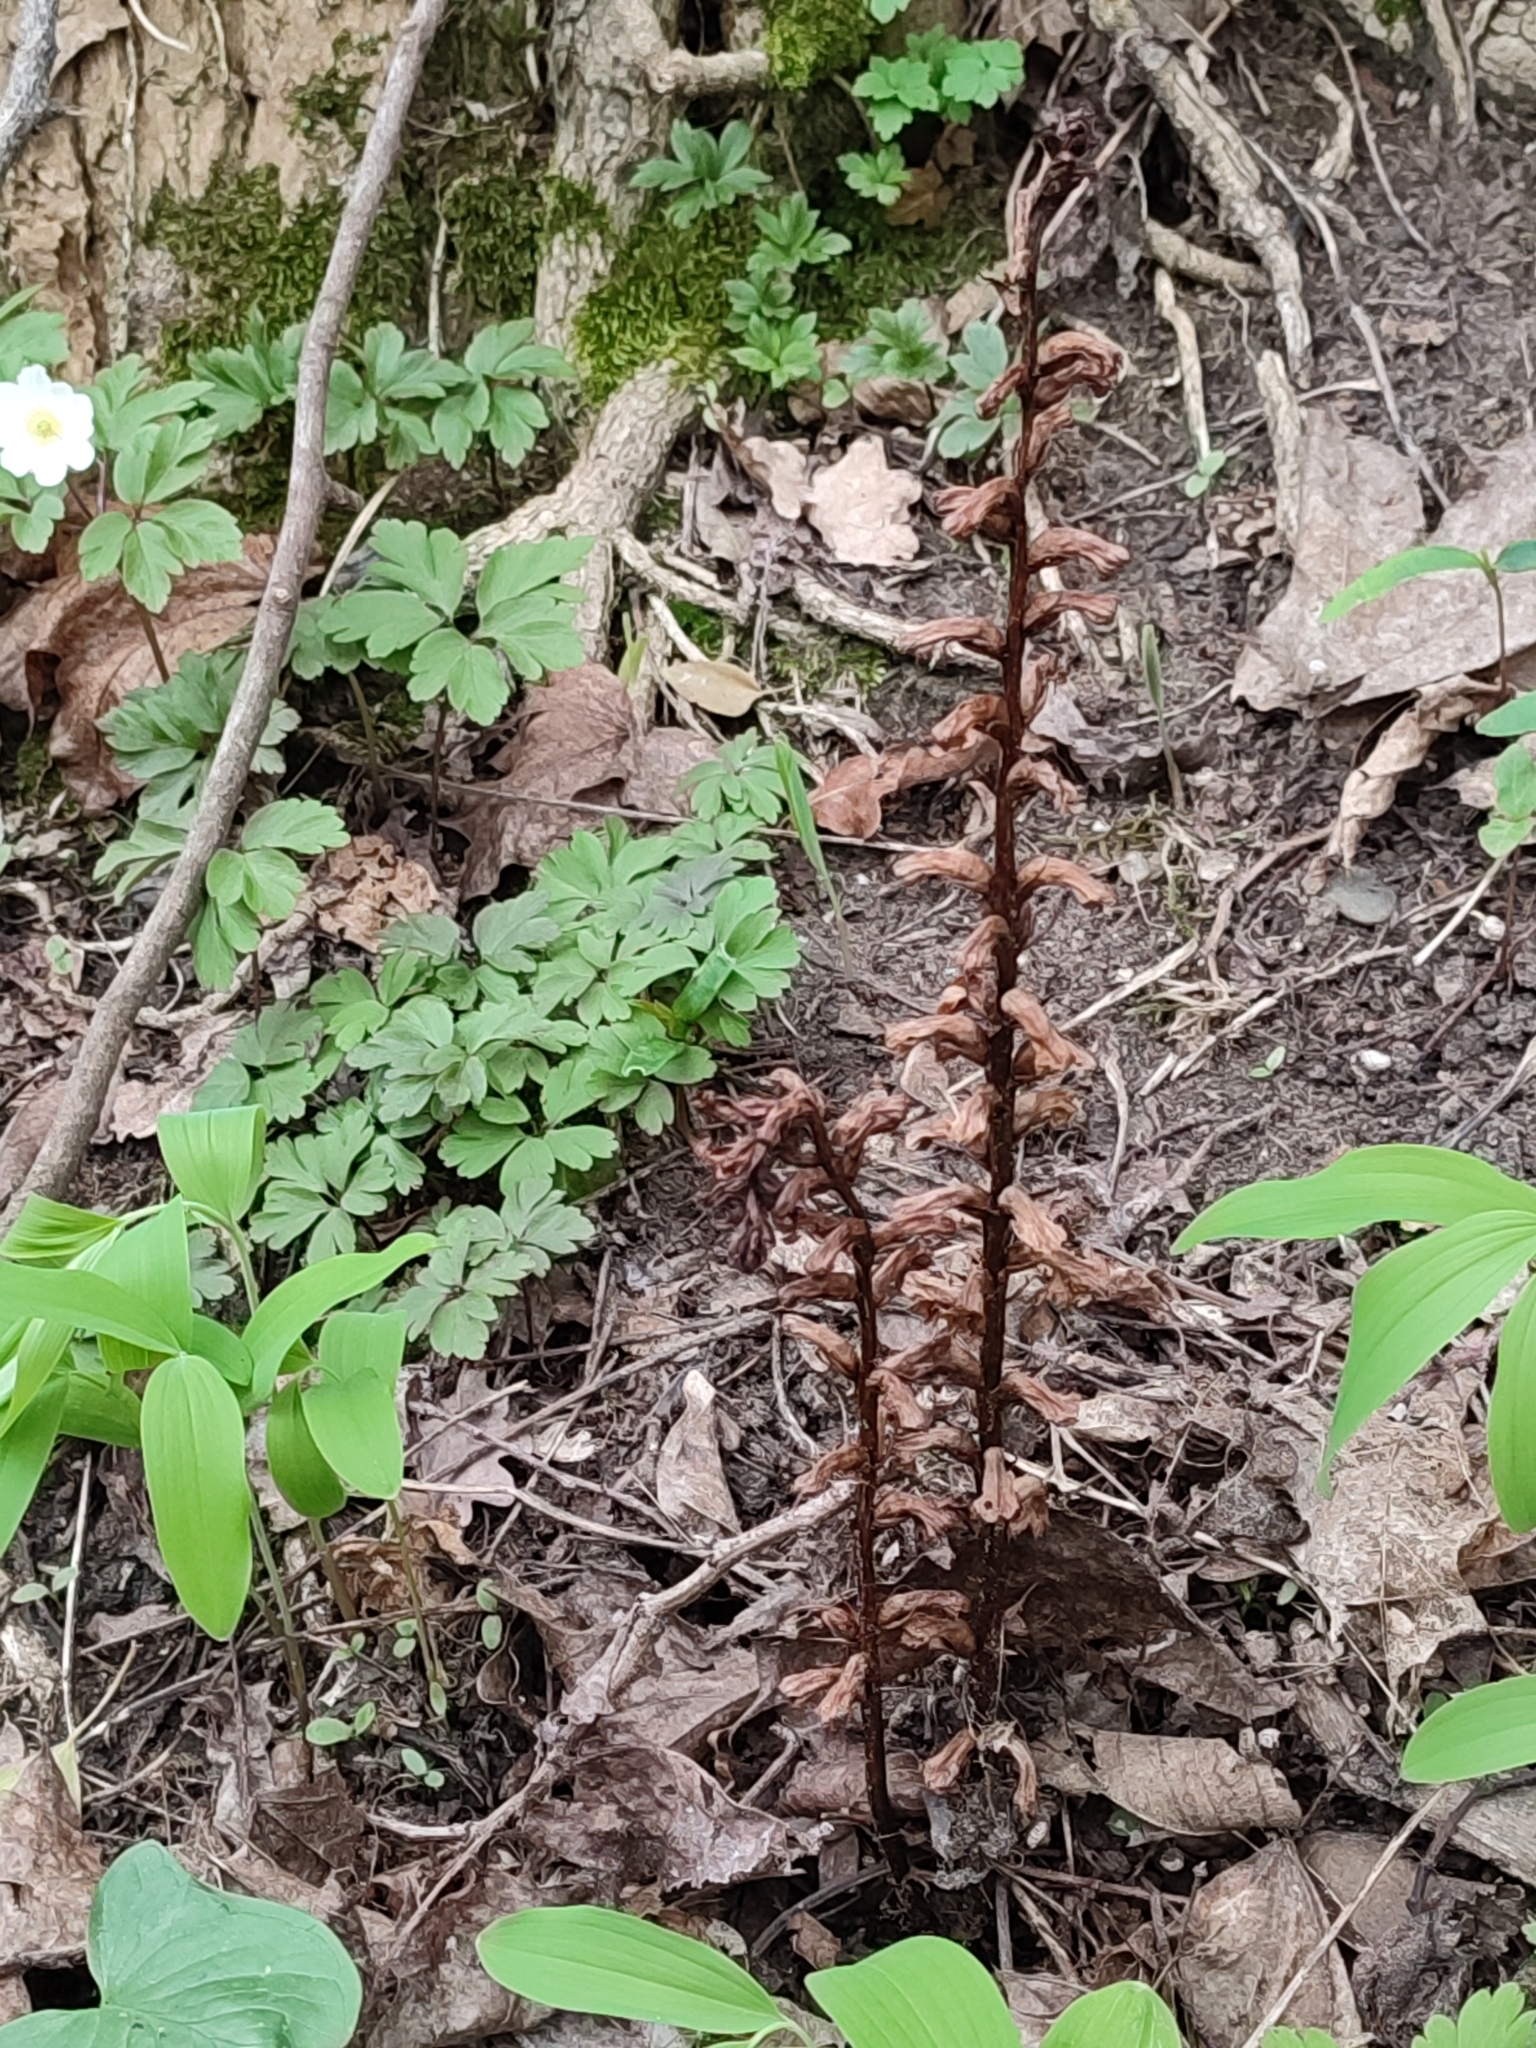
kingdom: Plantae
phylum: Tracheophyta
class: Magnoliopsida
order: Lamiales
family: Orobanchaceae
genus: Orobanche
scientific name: Orobanche hederae
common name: Ivy broomrape
